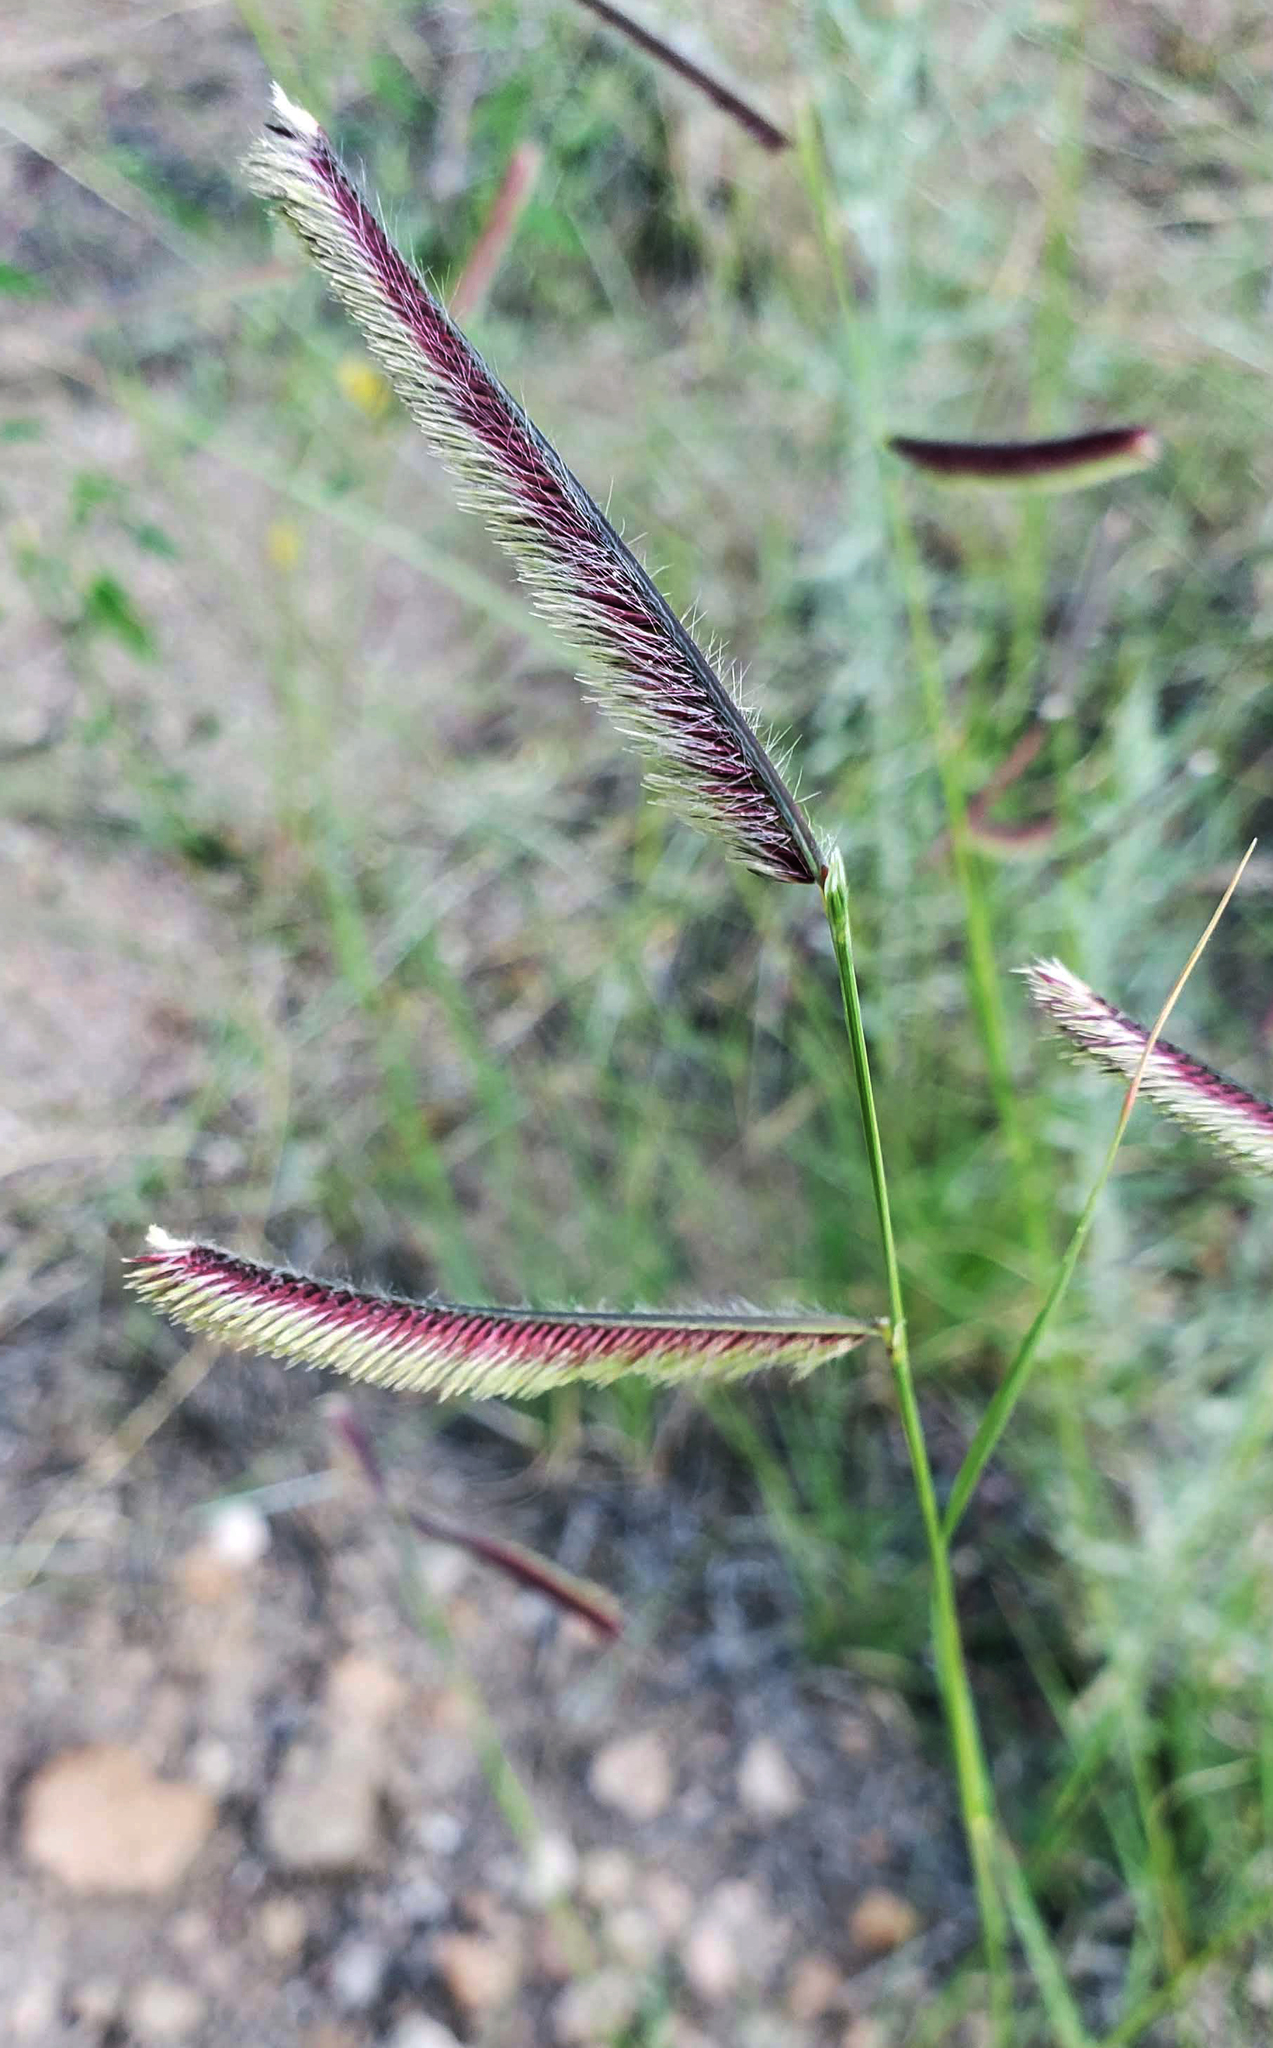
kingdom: Plantae
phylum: Tracheophyta
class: Liliopsida
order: Poales
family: Poaceae
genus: Bouteloua
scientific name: Bouteloua gracilis
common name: Blue grama
